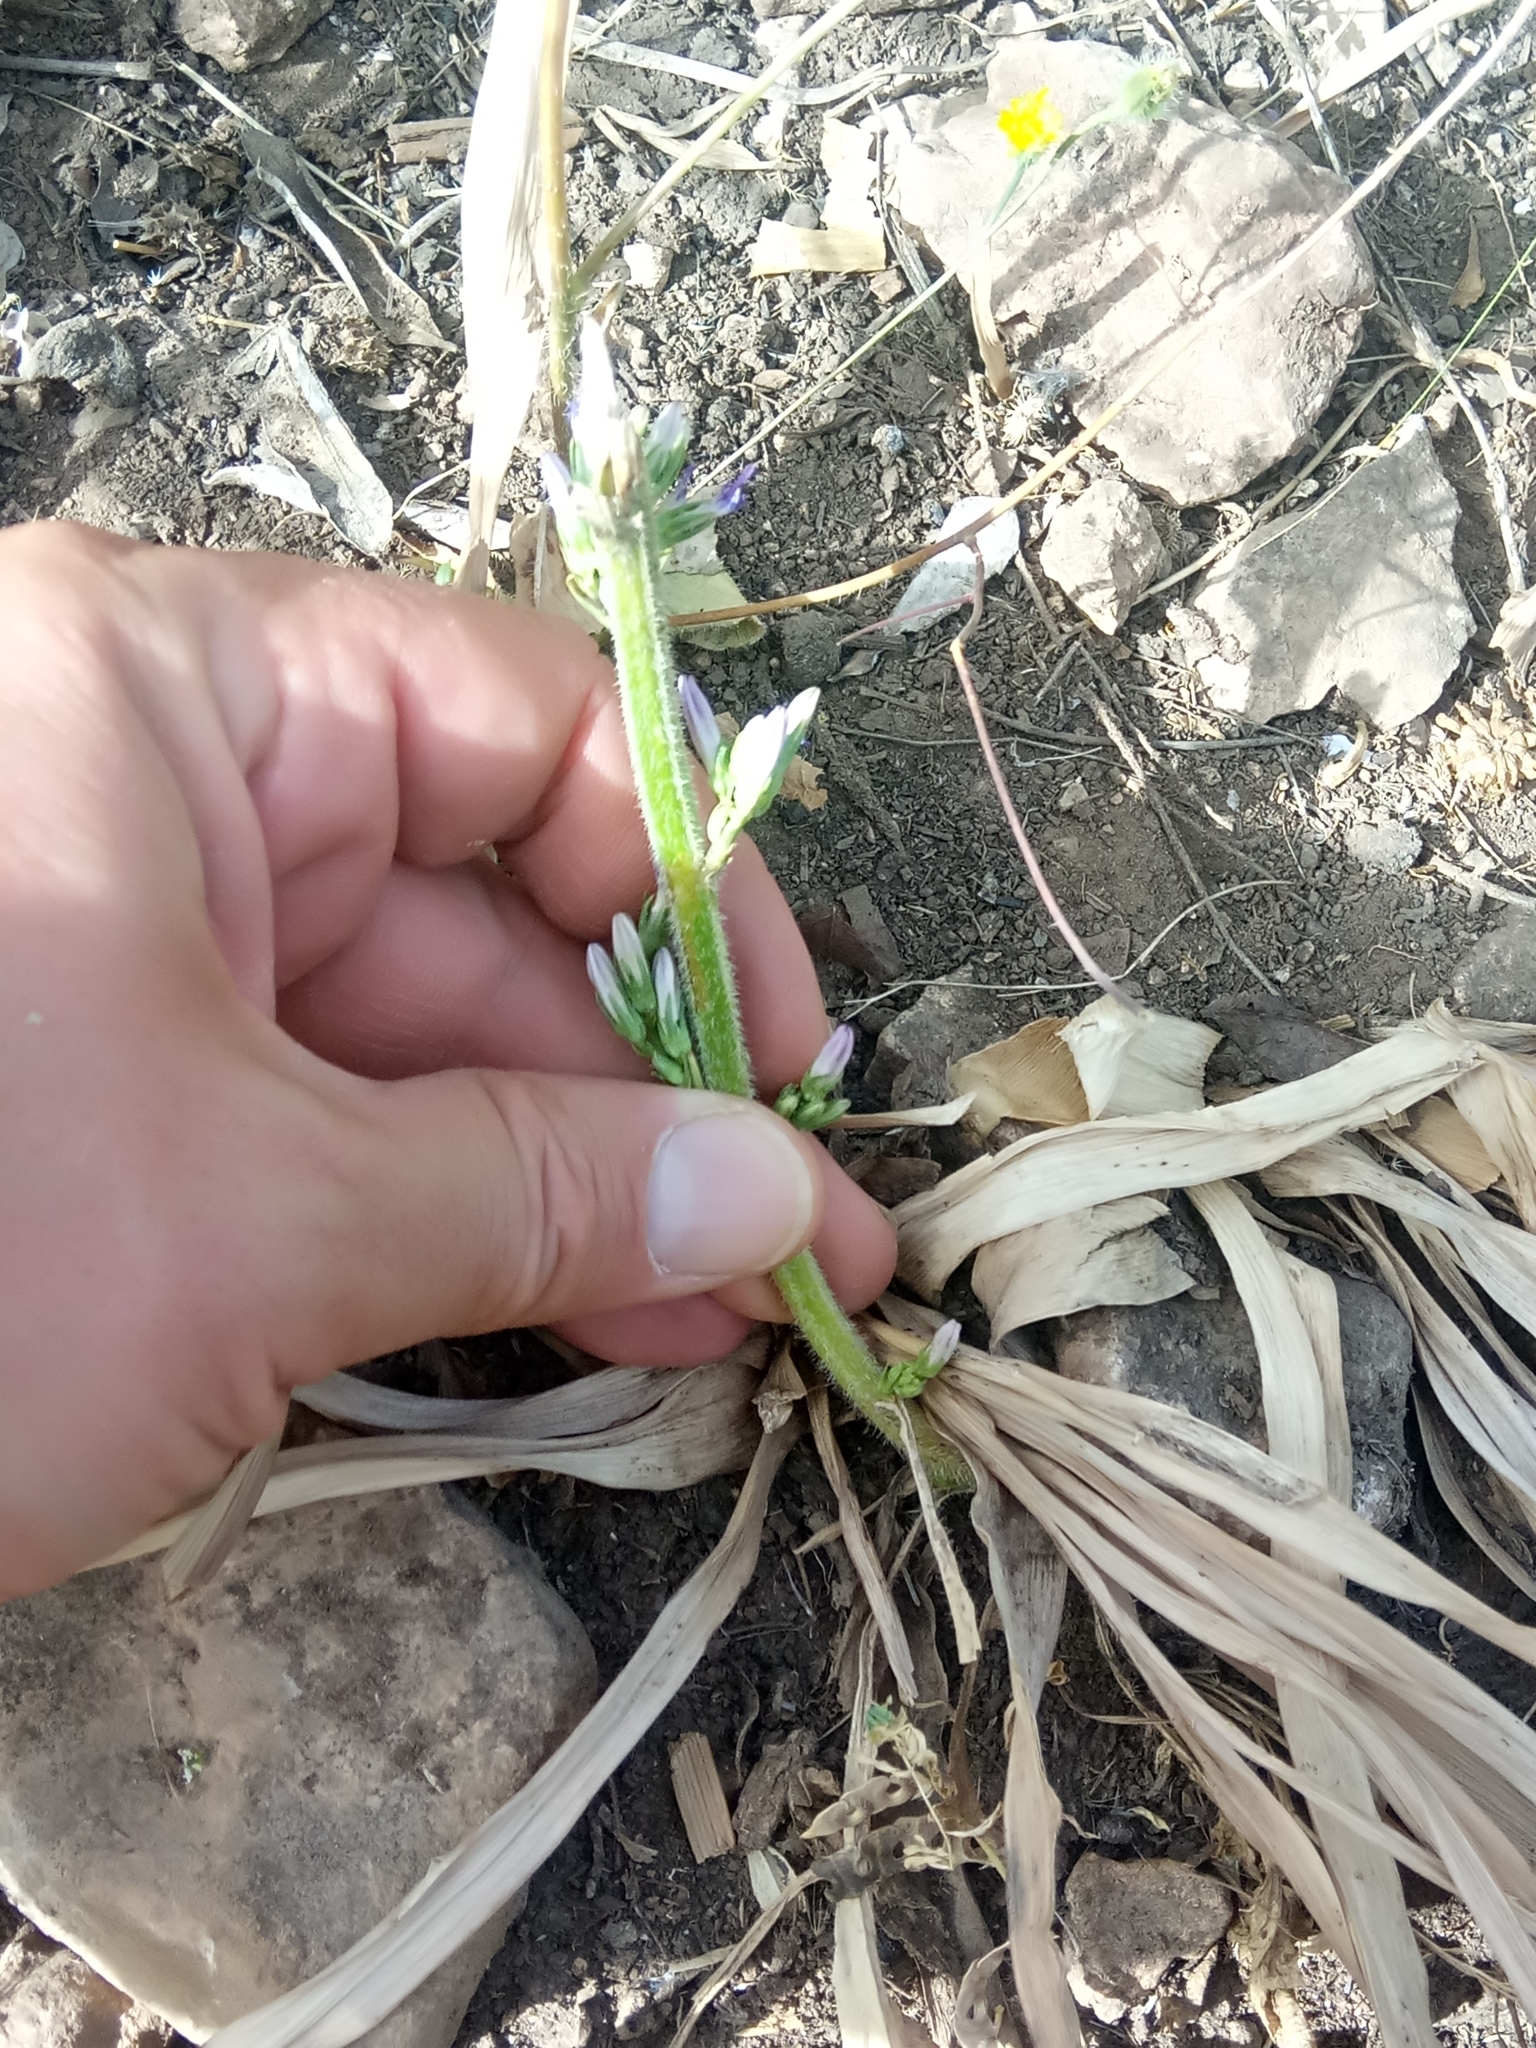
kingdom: Plantae
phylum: Tracheophyta
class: Magnoliopsida
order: Asterales
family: Campanulaceae
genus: Campanula
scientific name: Campanula rapunculus
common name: Rampion bellflower
